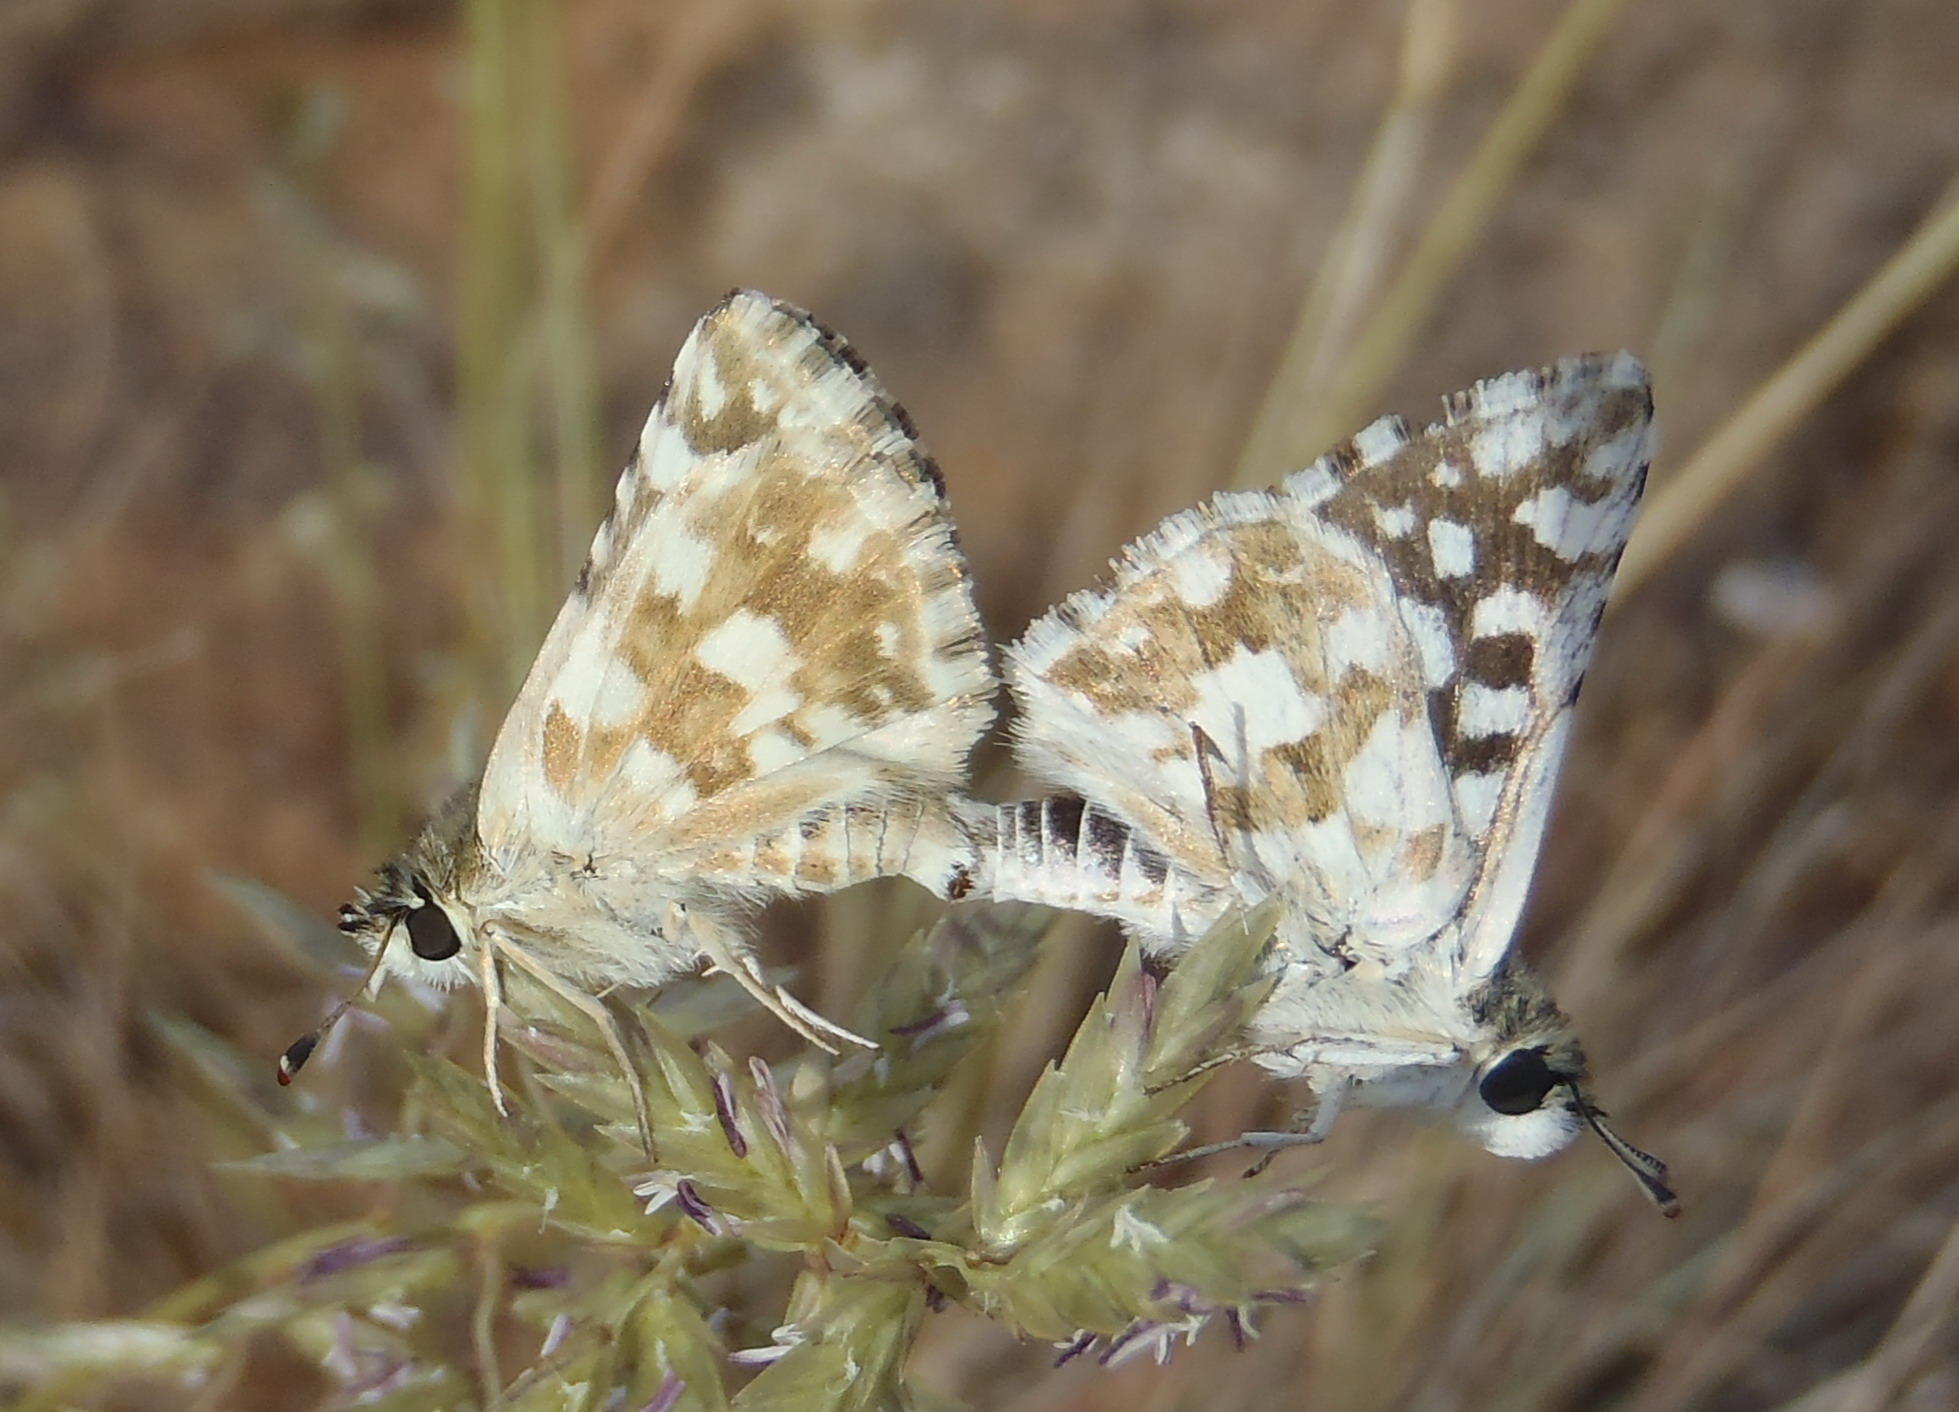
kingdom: Animalia
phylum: Arthropoda
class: Insecta
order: Lepidoptera
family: Hesperiidae
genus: Spialia
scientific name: Spialia spio
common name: Mountain sandman
